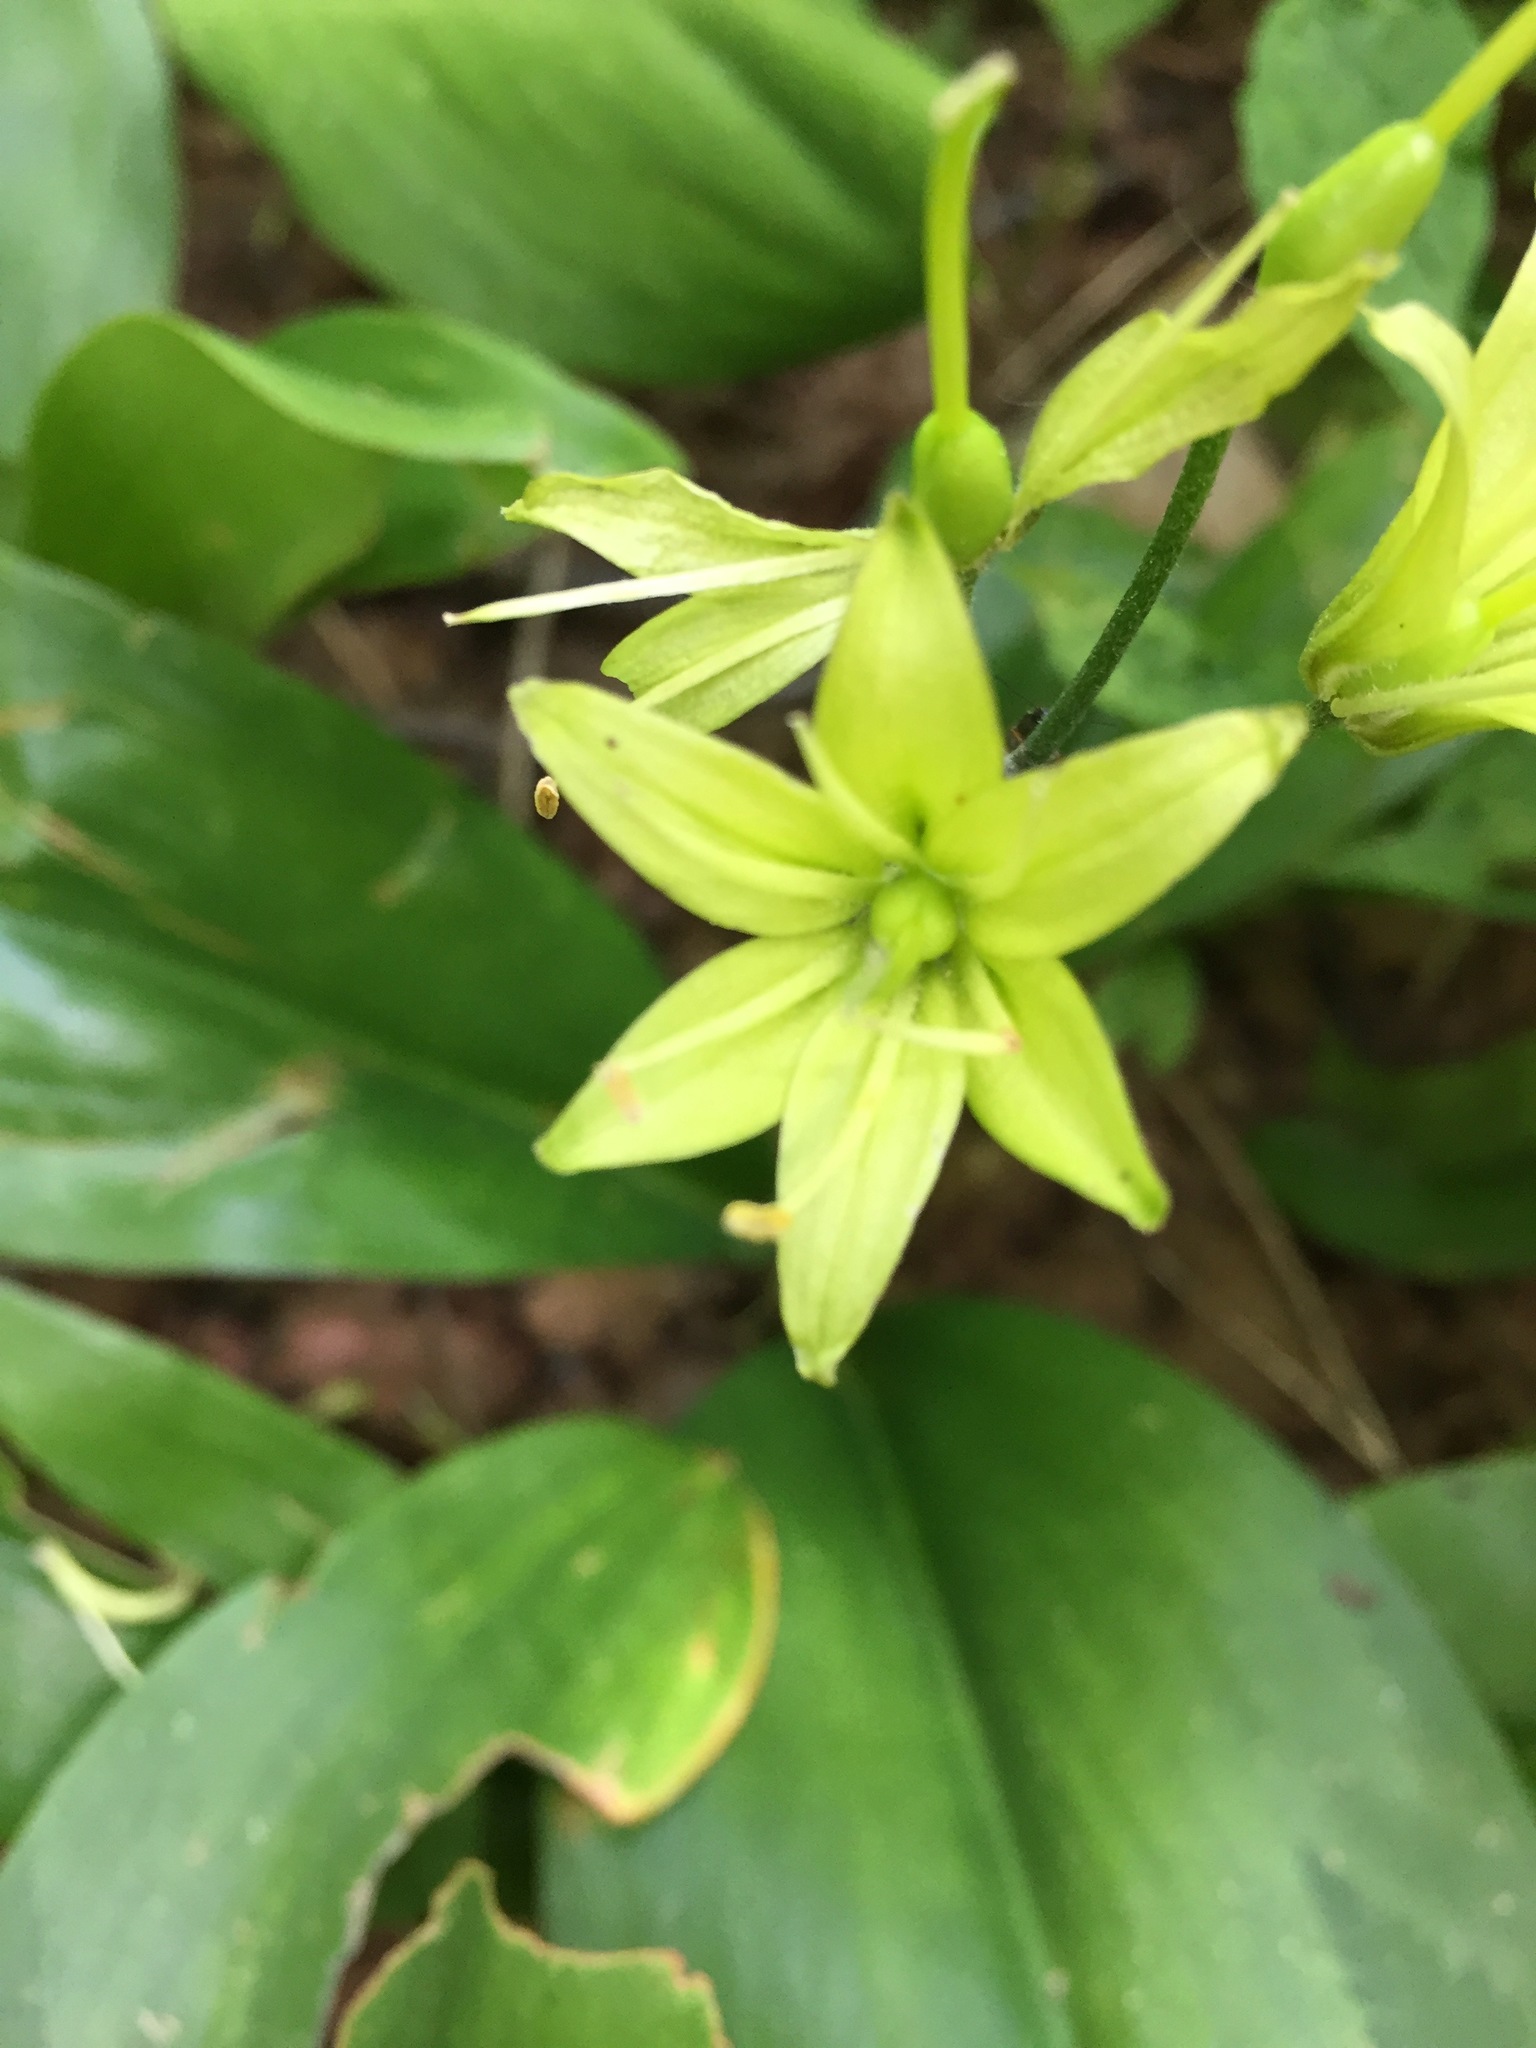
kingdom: Plantae
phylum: Tracheophyta
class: Liliopsida
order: Liliales
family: Liliaceae
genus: Clintonia
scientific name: Clintonia borealis
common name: Yellow clintonia
